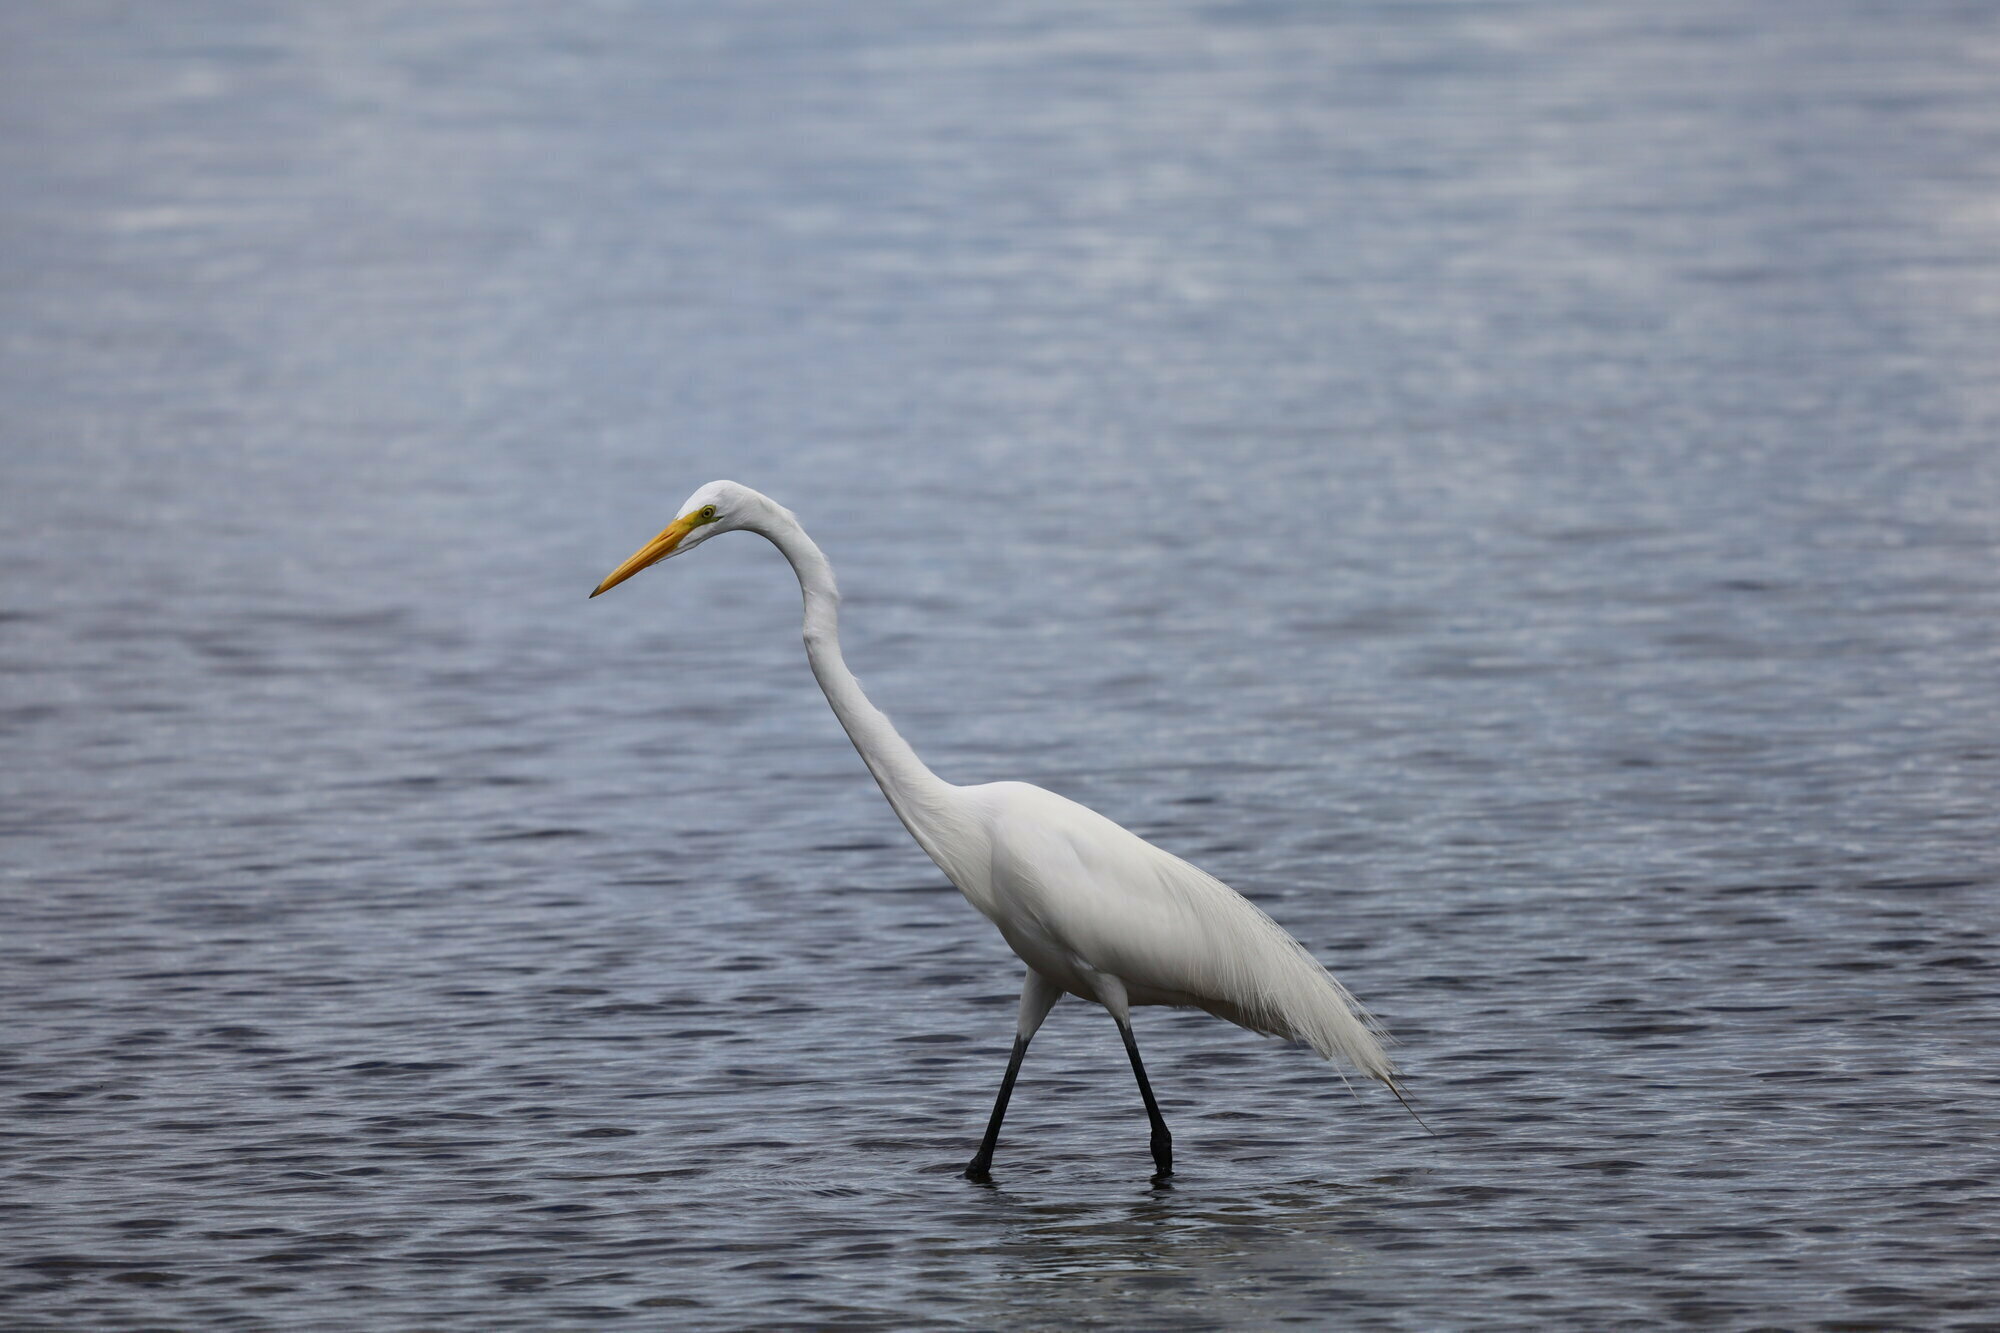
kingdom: Animalia
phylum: Chordata
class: Aves
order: Pelecaniformes
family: Ardeidae
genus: Ardea
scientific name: Ardea alba
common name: Great egret
